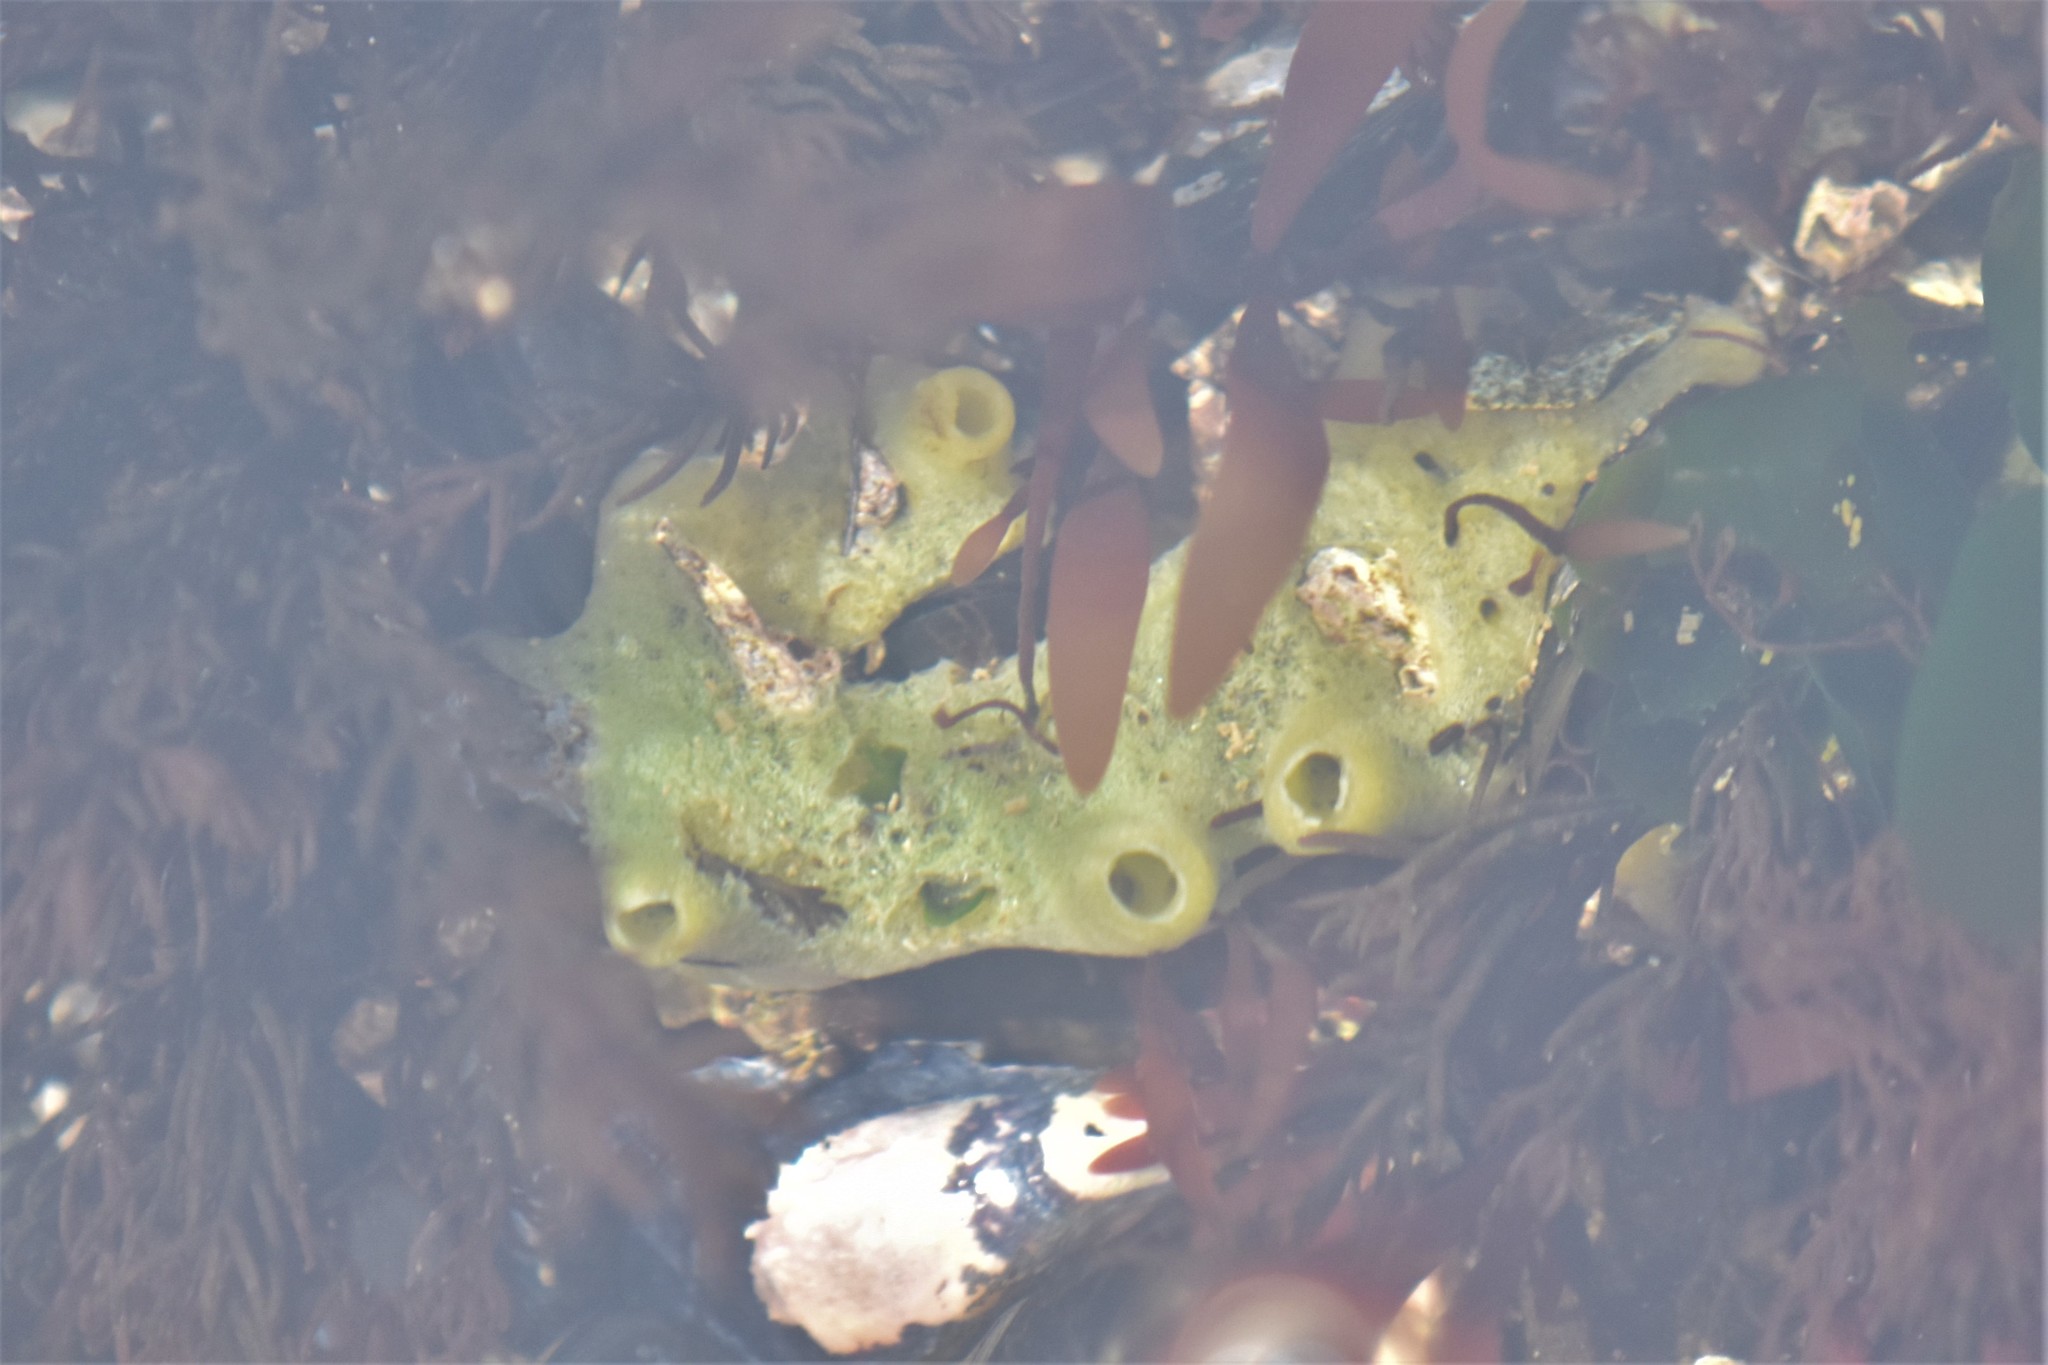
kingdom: Animalia
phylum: Porifera
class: Demospongiae
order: Suberitida
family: Halichondriidae
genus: Halichondria
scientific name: Halichondria panicea
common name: Breadcrumb sponge
